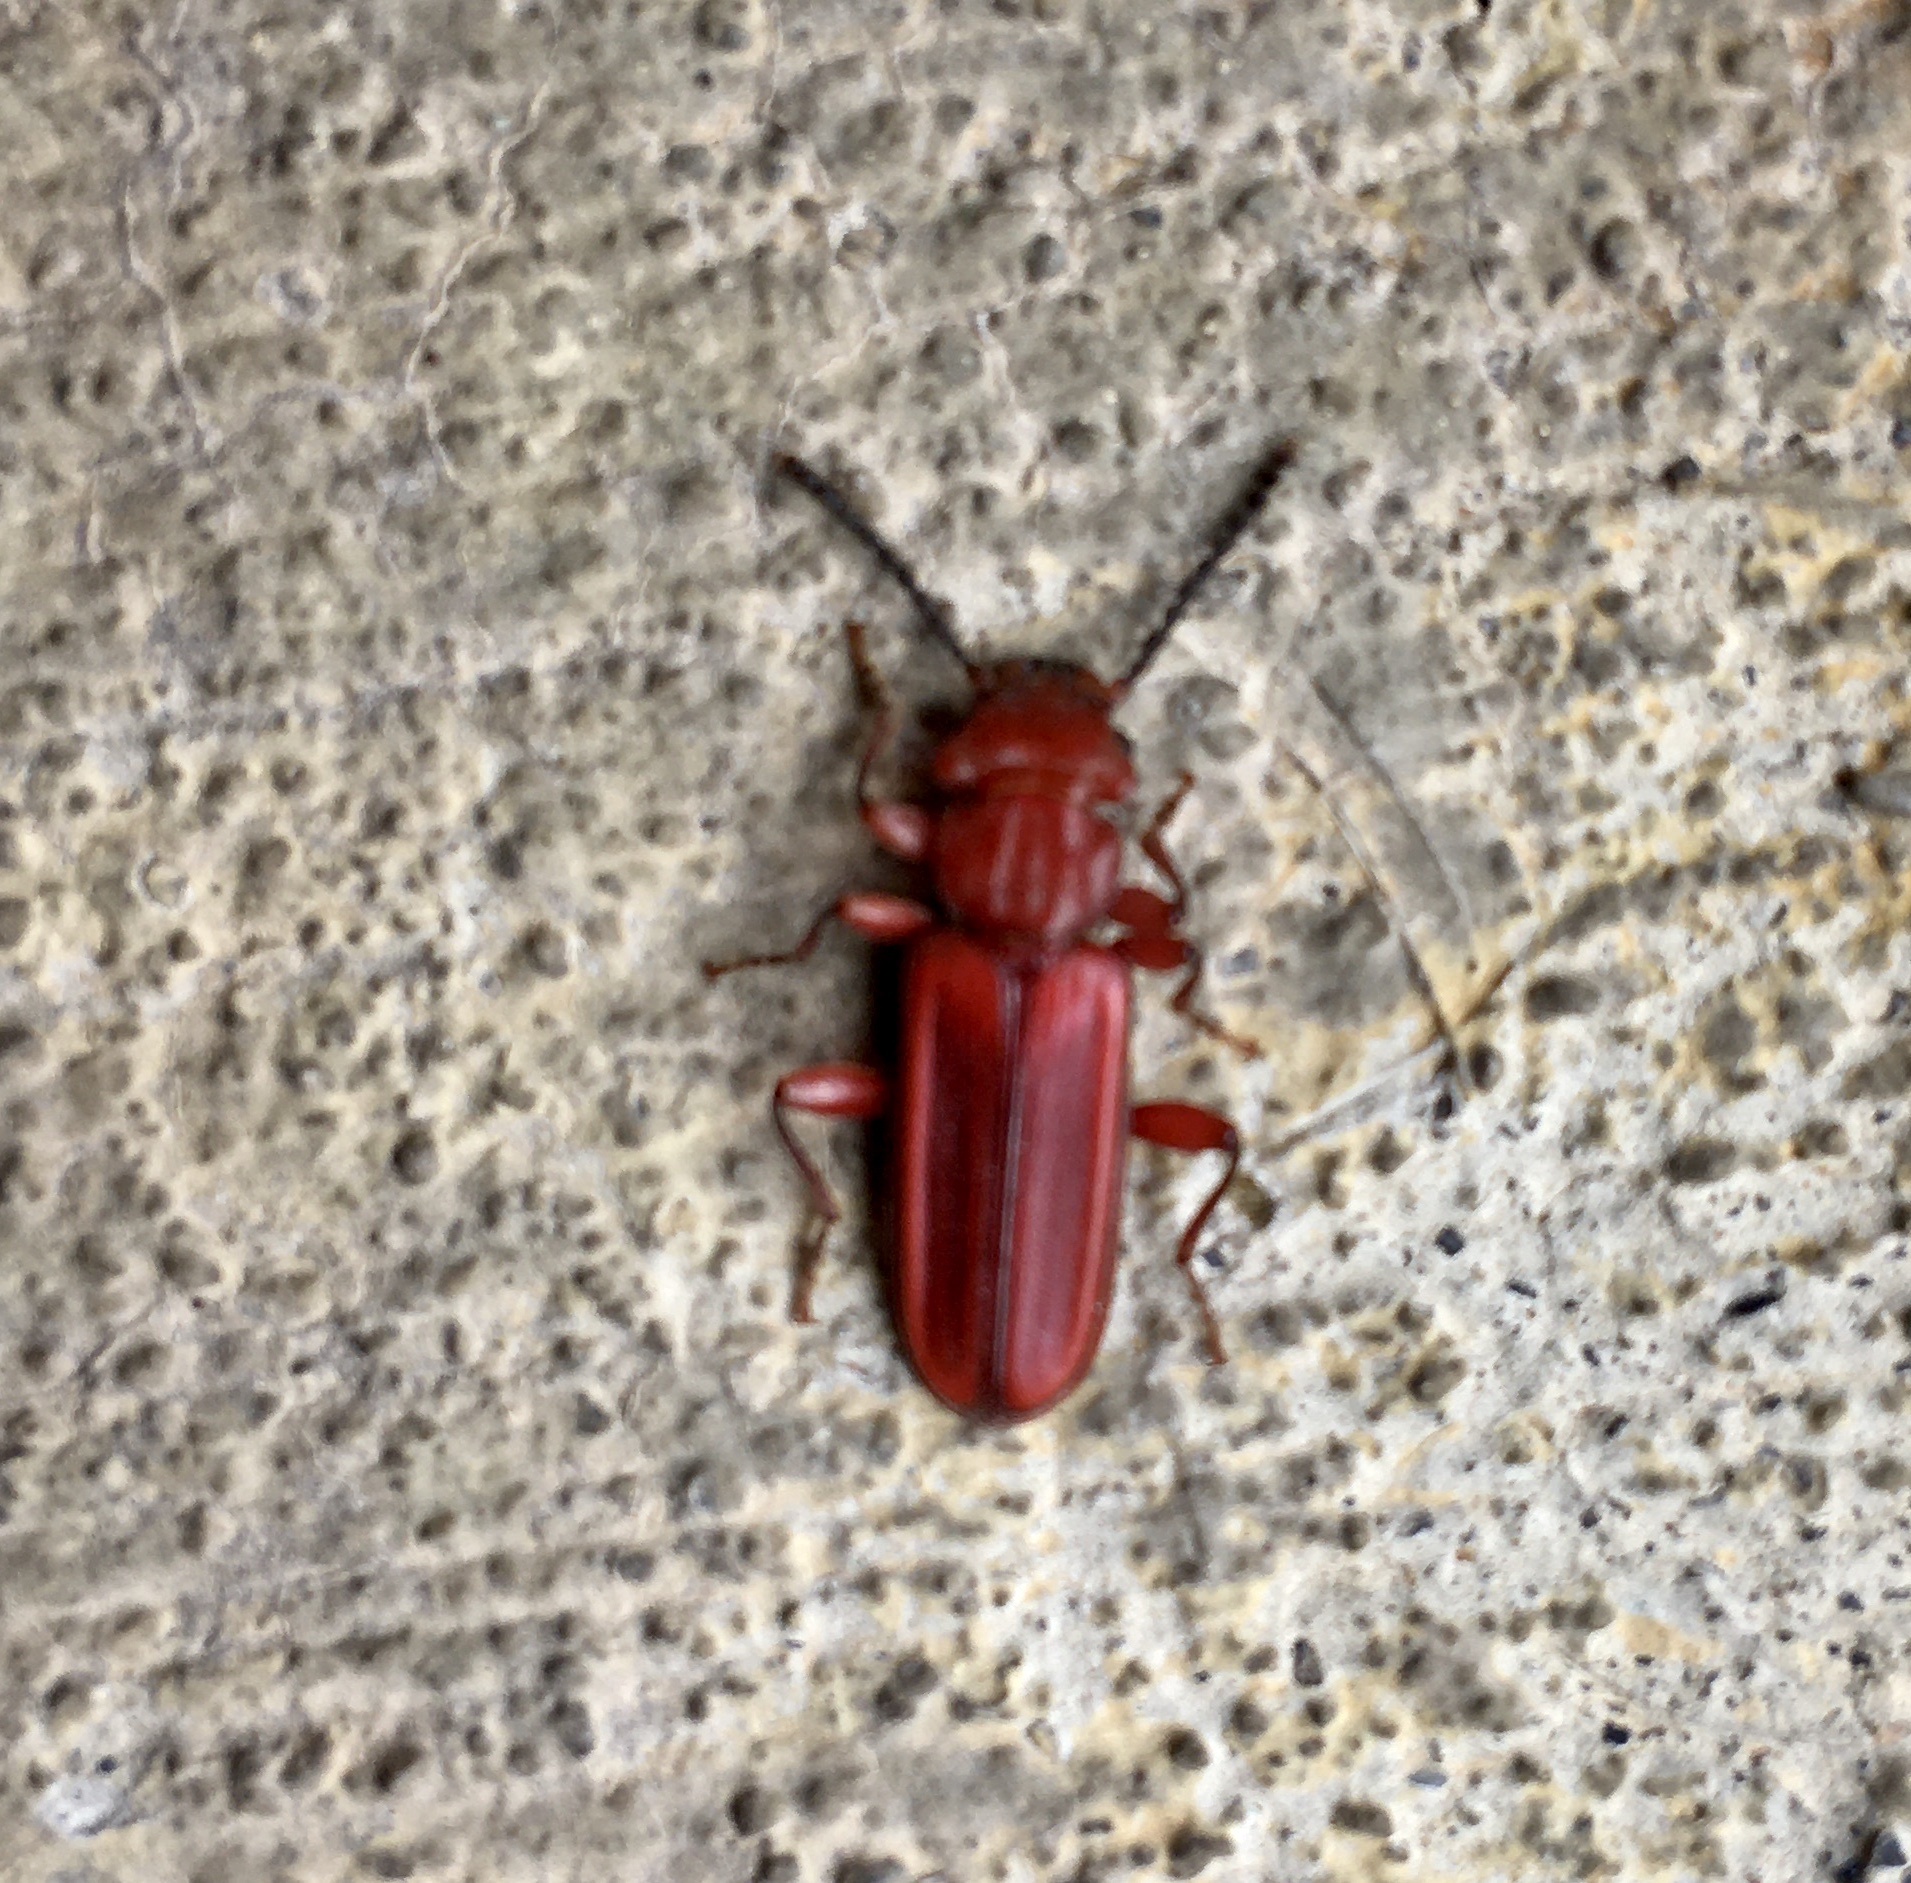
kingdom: Animalia
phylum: Arthropoda
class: Insecta
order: Coleoptera
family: Cucujidae
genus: Cucujus
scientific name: Cucujus clavipes
